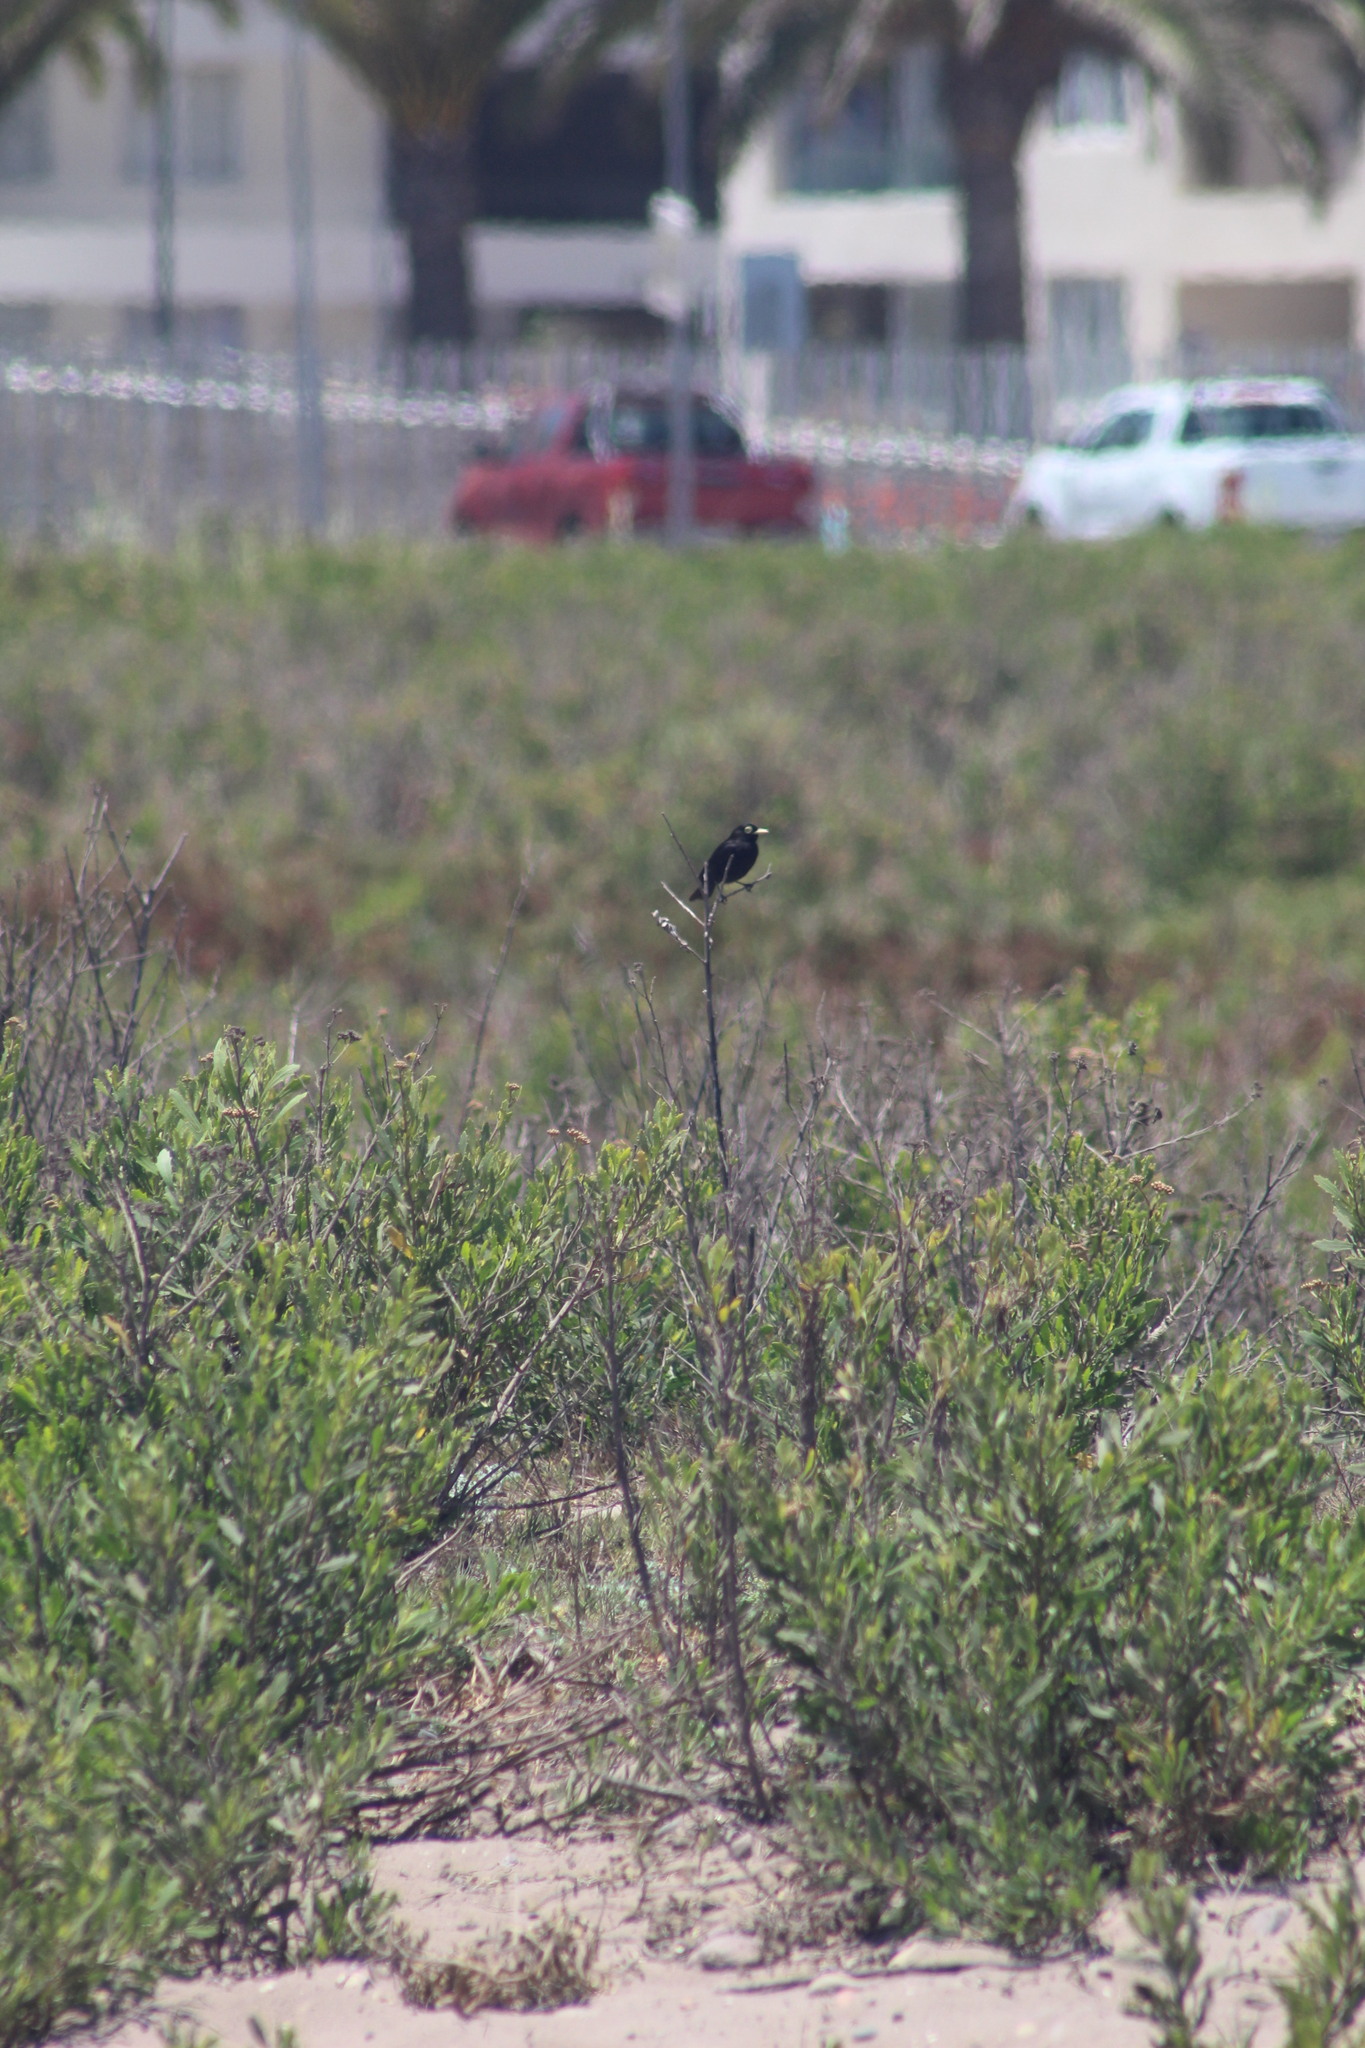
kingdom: Animalia
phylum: Chordata
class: Aves
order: Passeriformes
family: Tyrannidae
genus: Hymenops
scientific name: Hymenops perspicillatus
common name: Spectacled tyrant
